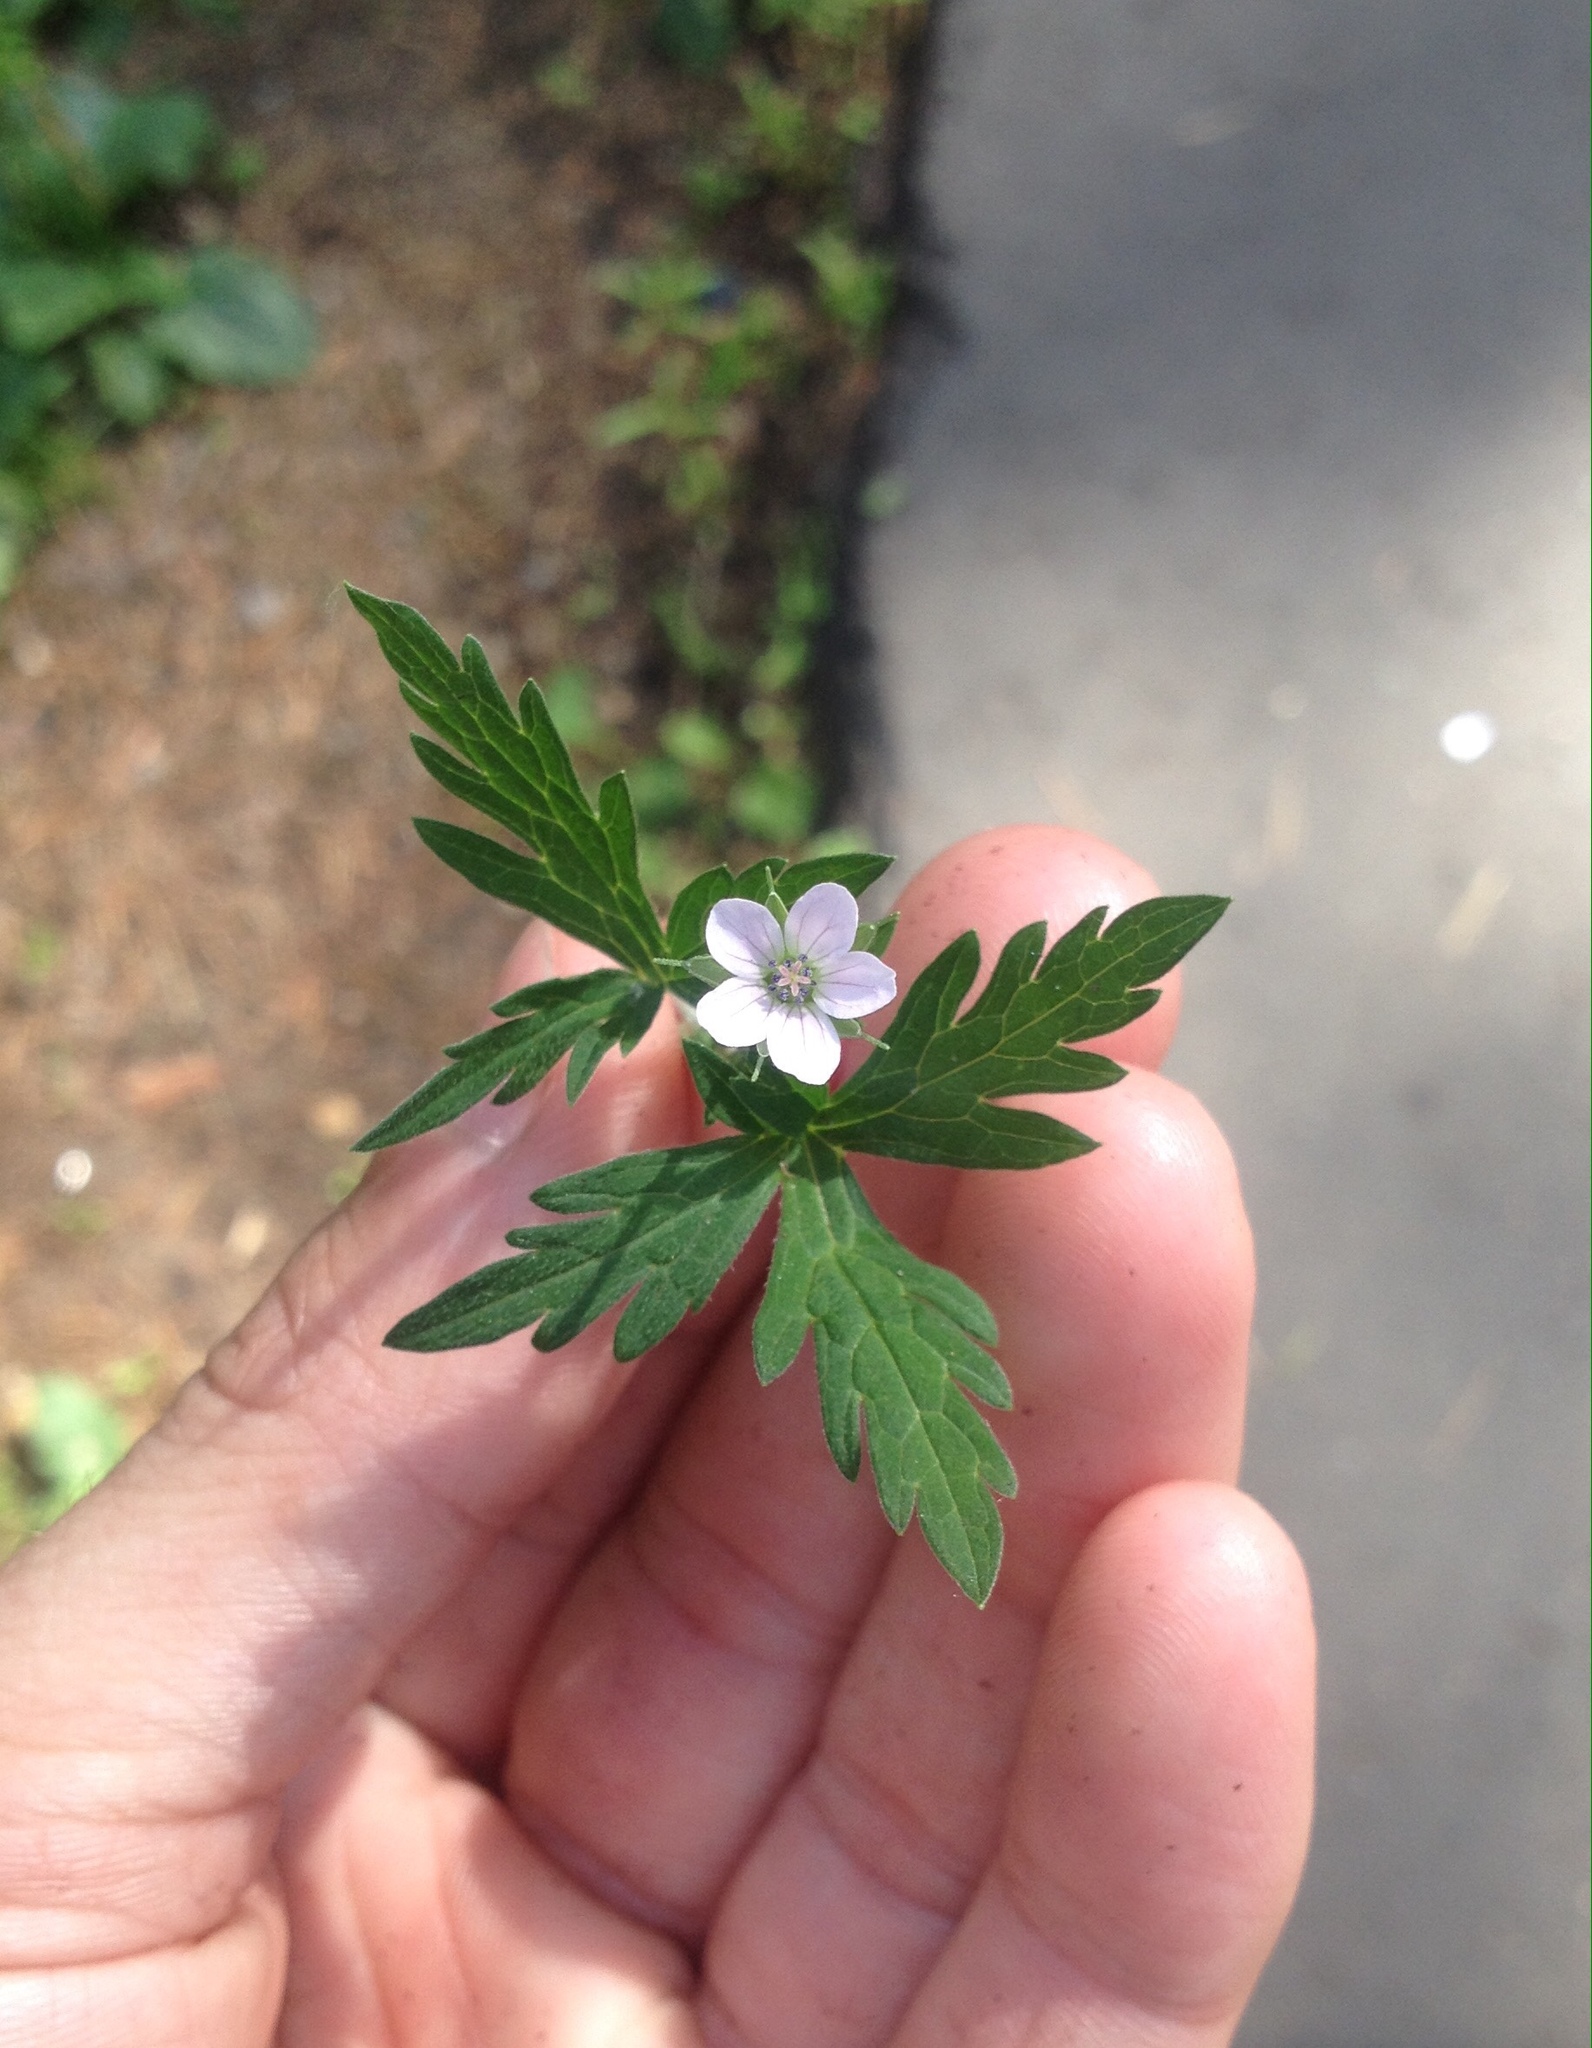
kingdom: Plantae
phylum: Tracheophyta
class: Magnoliopsida
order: Geraniales
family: Geraniaceae
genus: Geranium
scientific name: Geranium sibiricum
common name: Siberian crane's-bill
